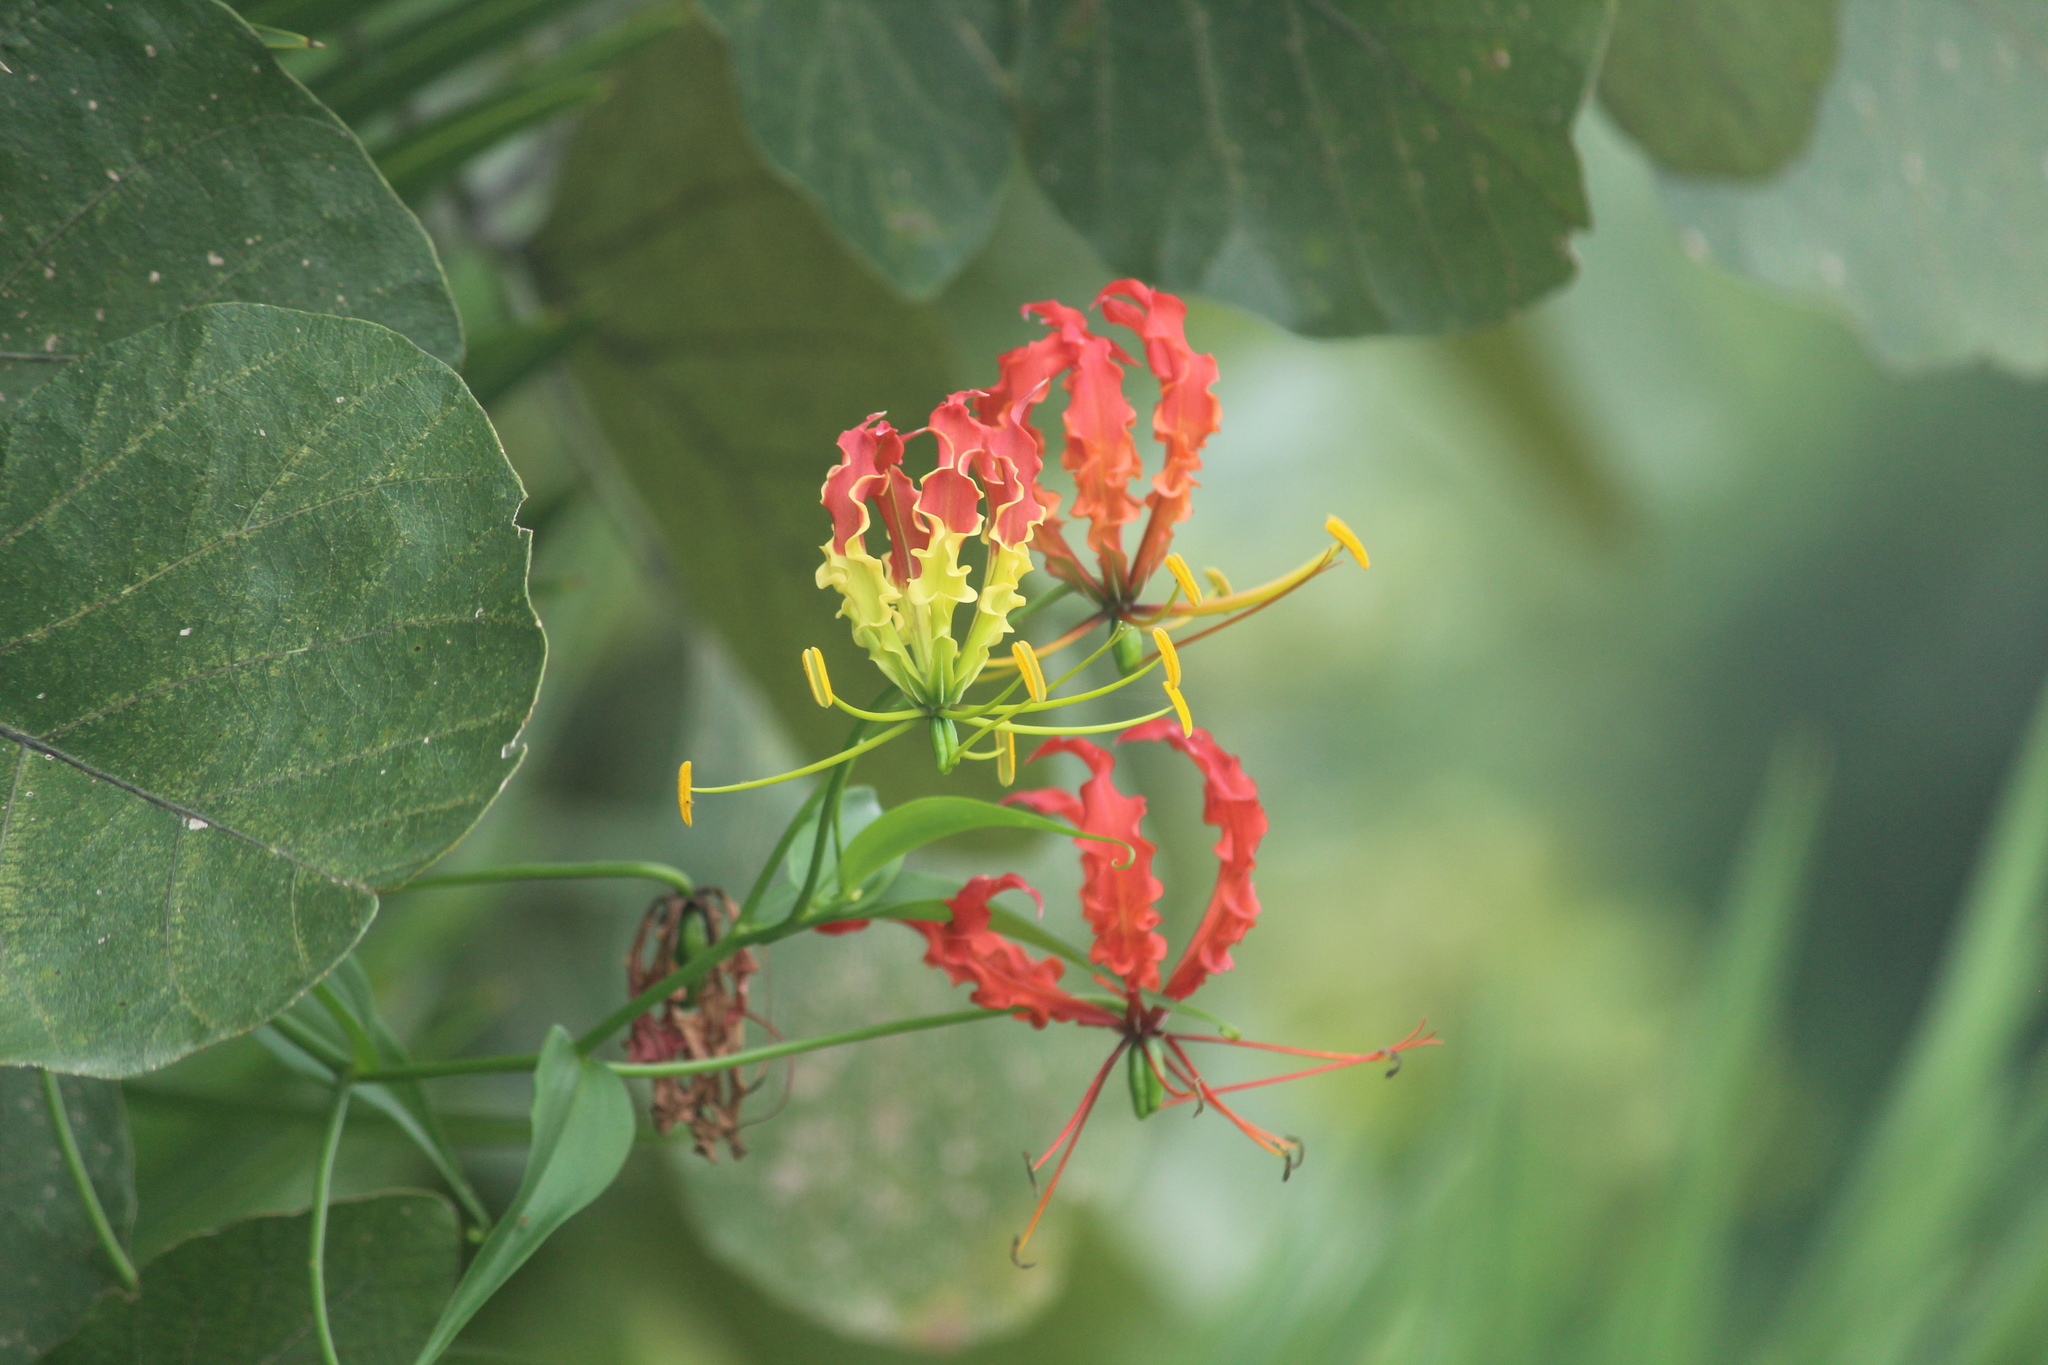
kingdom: Plantae
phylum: Tracheophyta
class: Liliopsida
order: Liliales
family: Colchicaceae
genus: Gloriosa
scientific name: Gloriosa superba
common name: Flame lily
